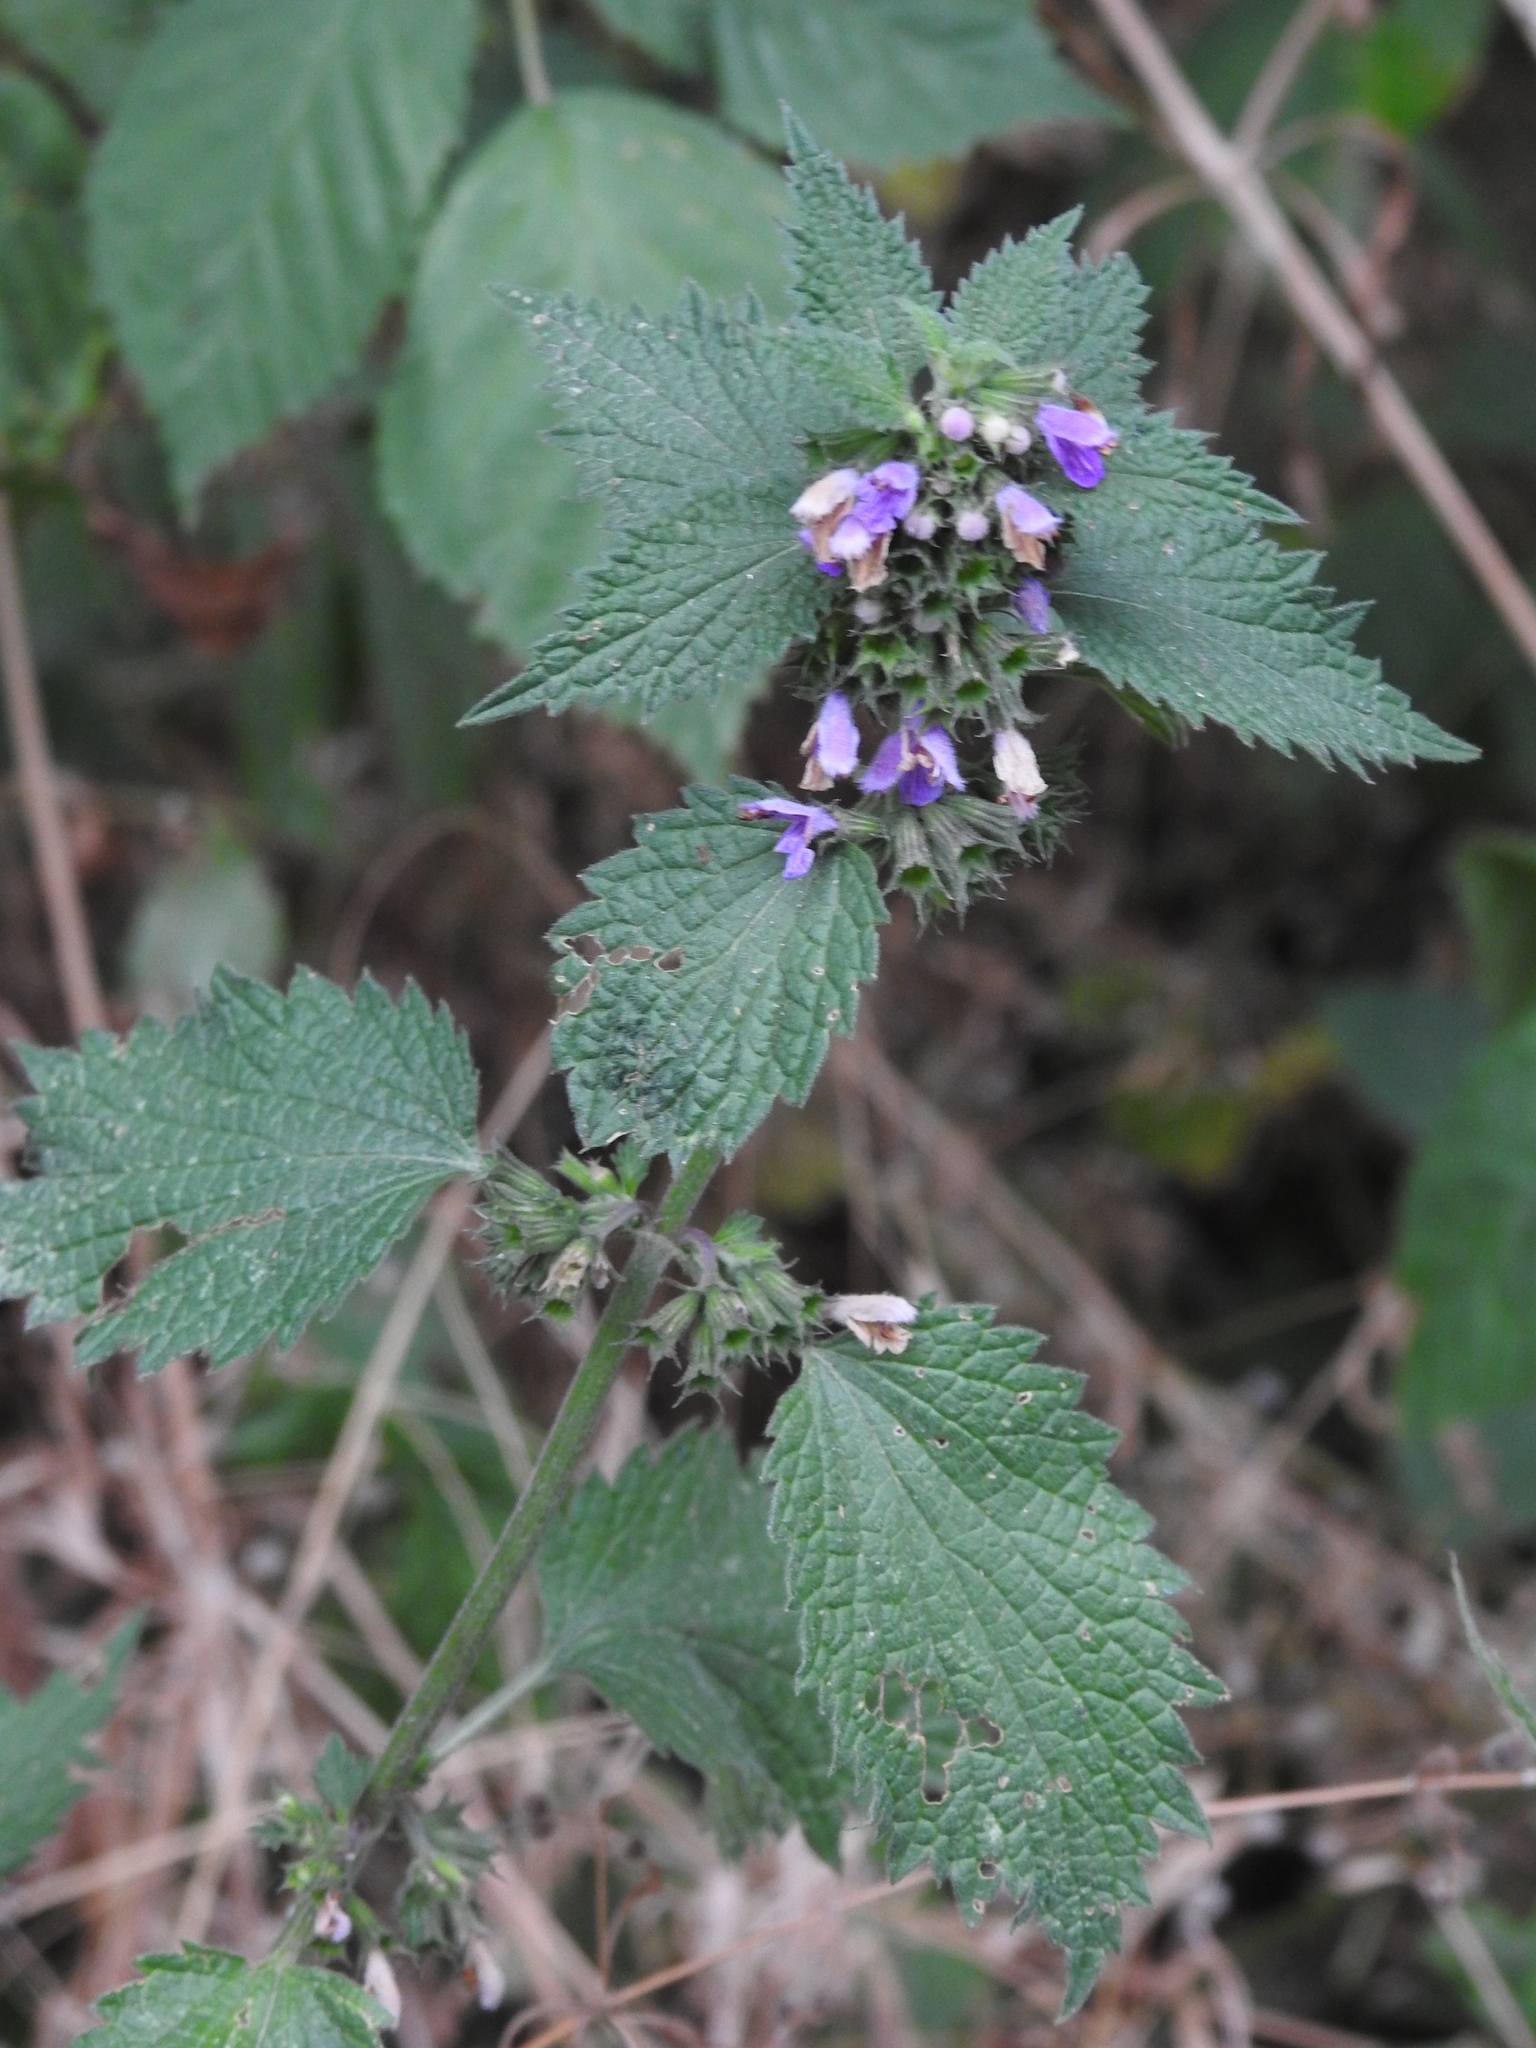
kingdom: Plantae
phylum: Tracheophyta
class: Magnoliopsida
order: Lamiales
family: Lamiaceae
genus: Ballota
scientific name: Ballota nigra
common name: Black horehound
